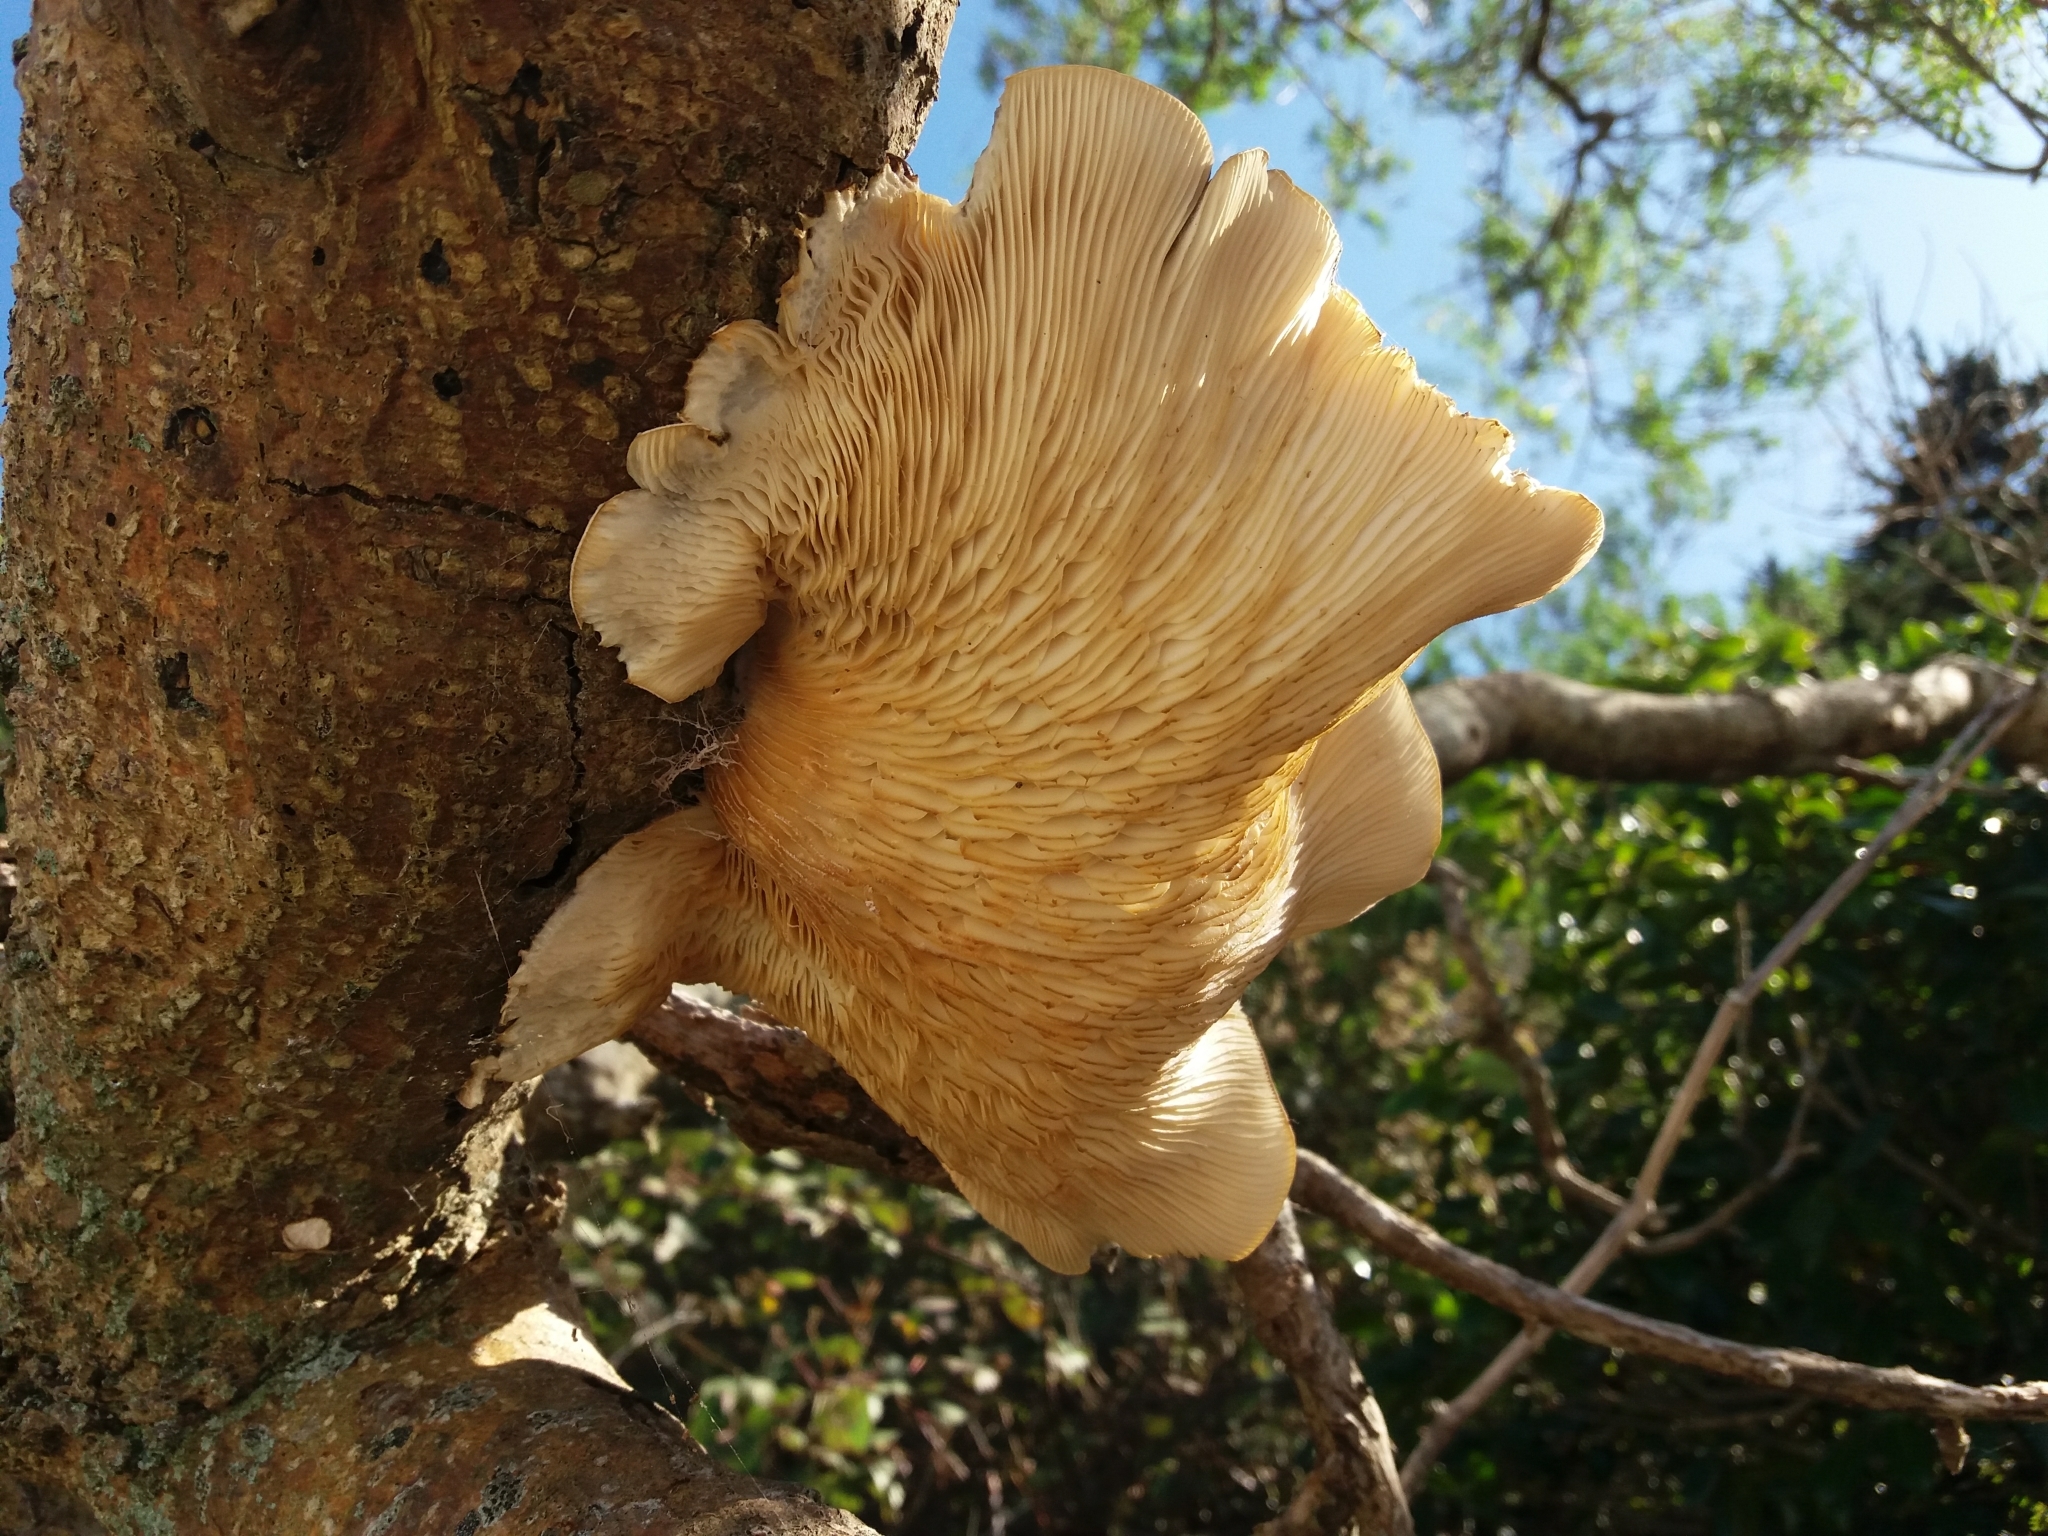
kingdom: Fungi
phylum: Basidiomycota
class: Agaricomycetes
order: Agaricales
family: Tubariaceae
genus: Cyclocybe
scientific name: Cyclocybe parasitica
